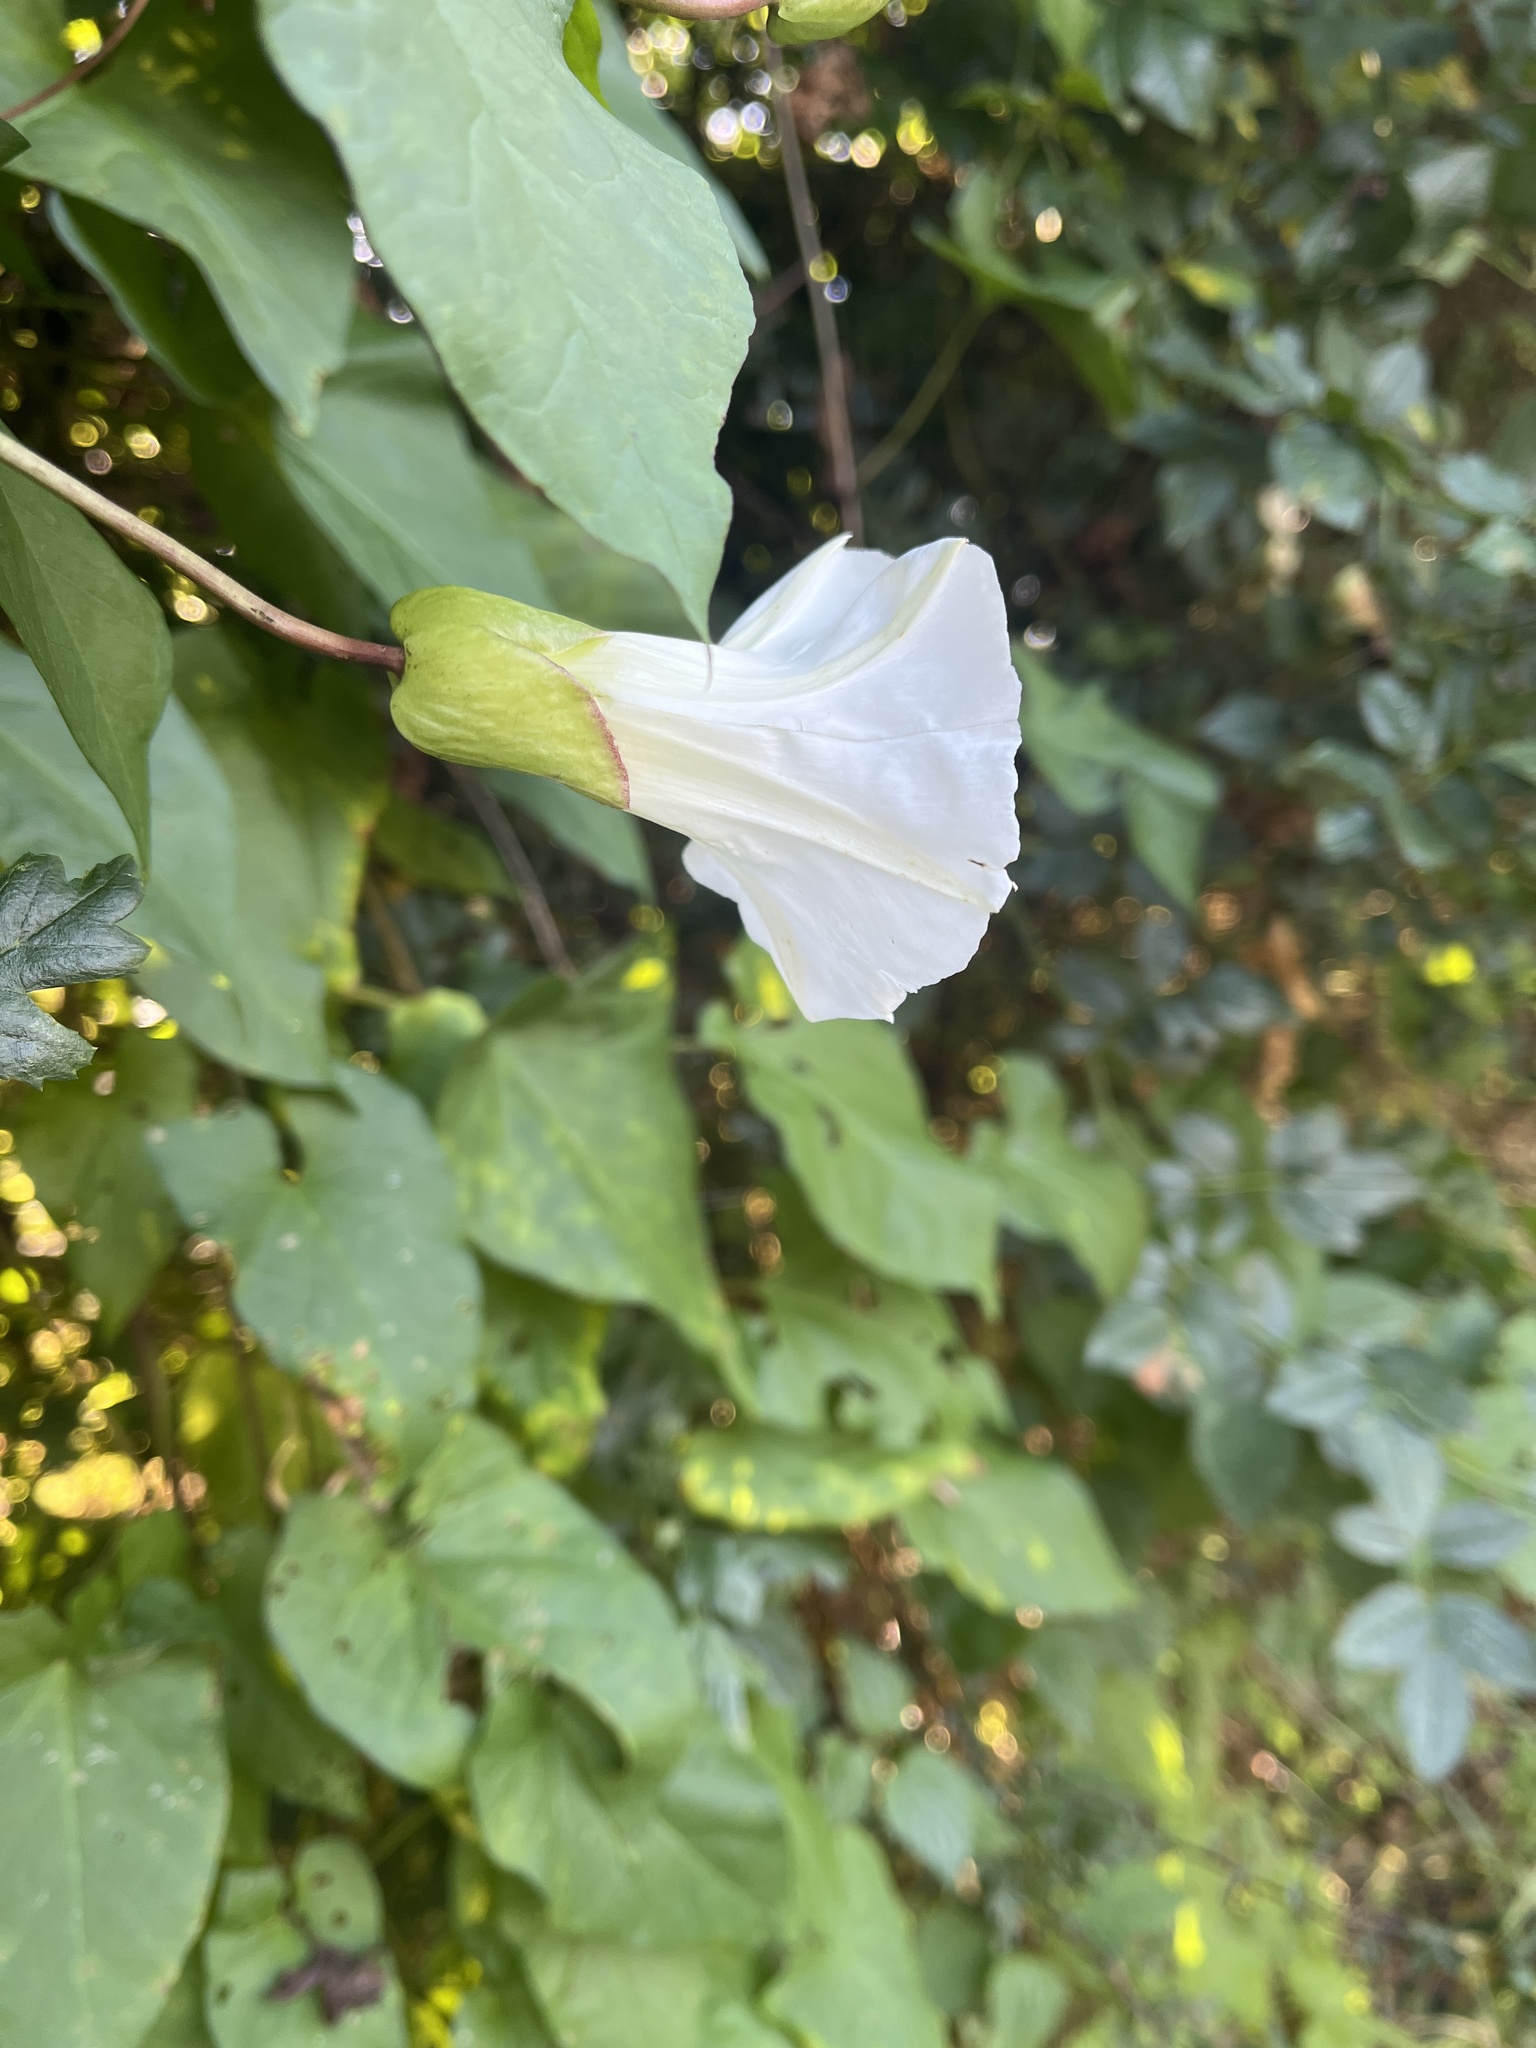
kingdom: Plantae
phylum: Tracheophyta
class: Magnoliopsida
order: Solanales
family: Convolvulaceae
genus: Calystegia
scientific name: Calystegia silvatica
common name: Large bindweed
